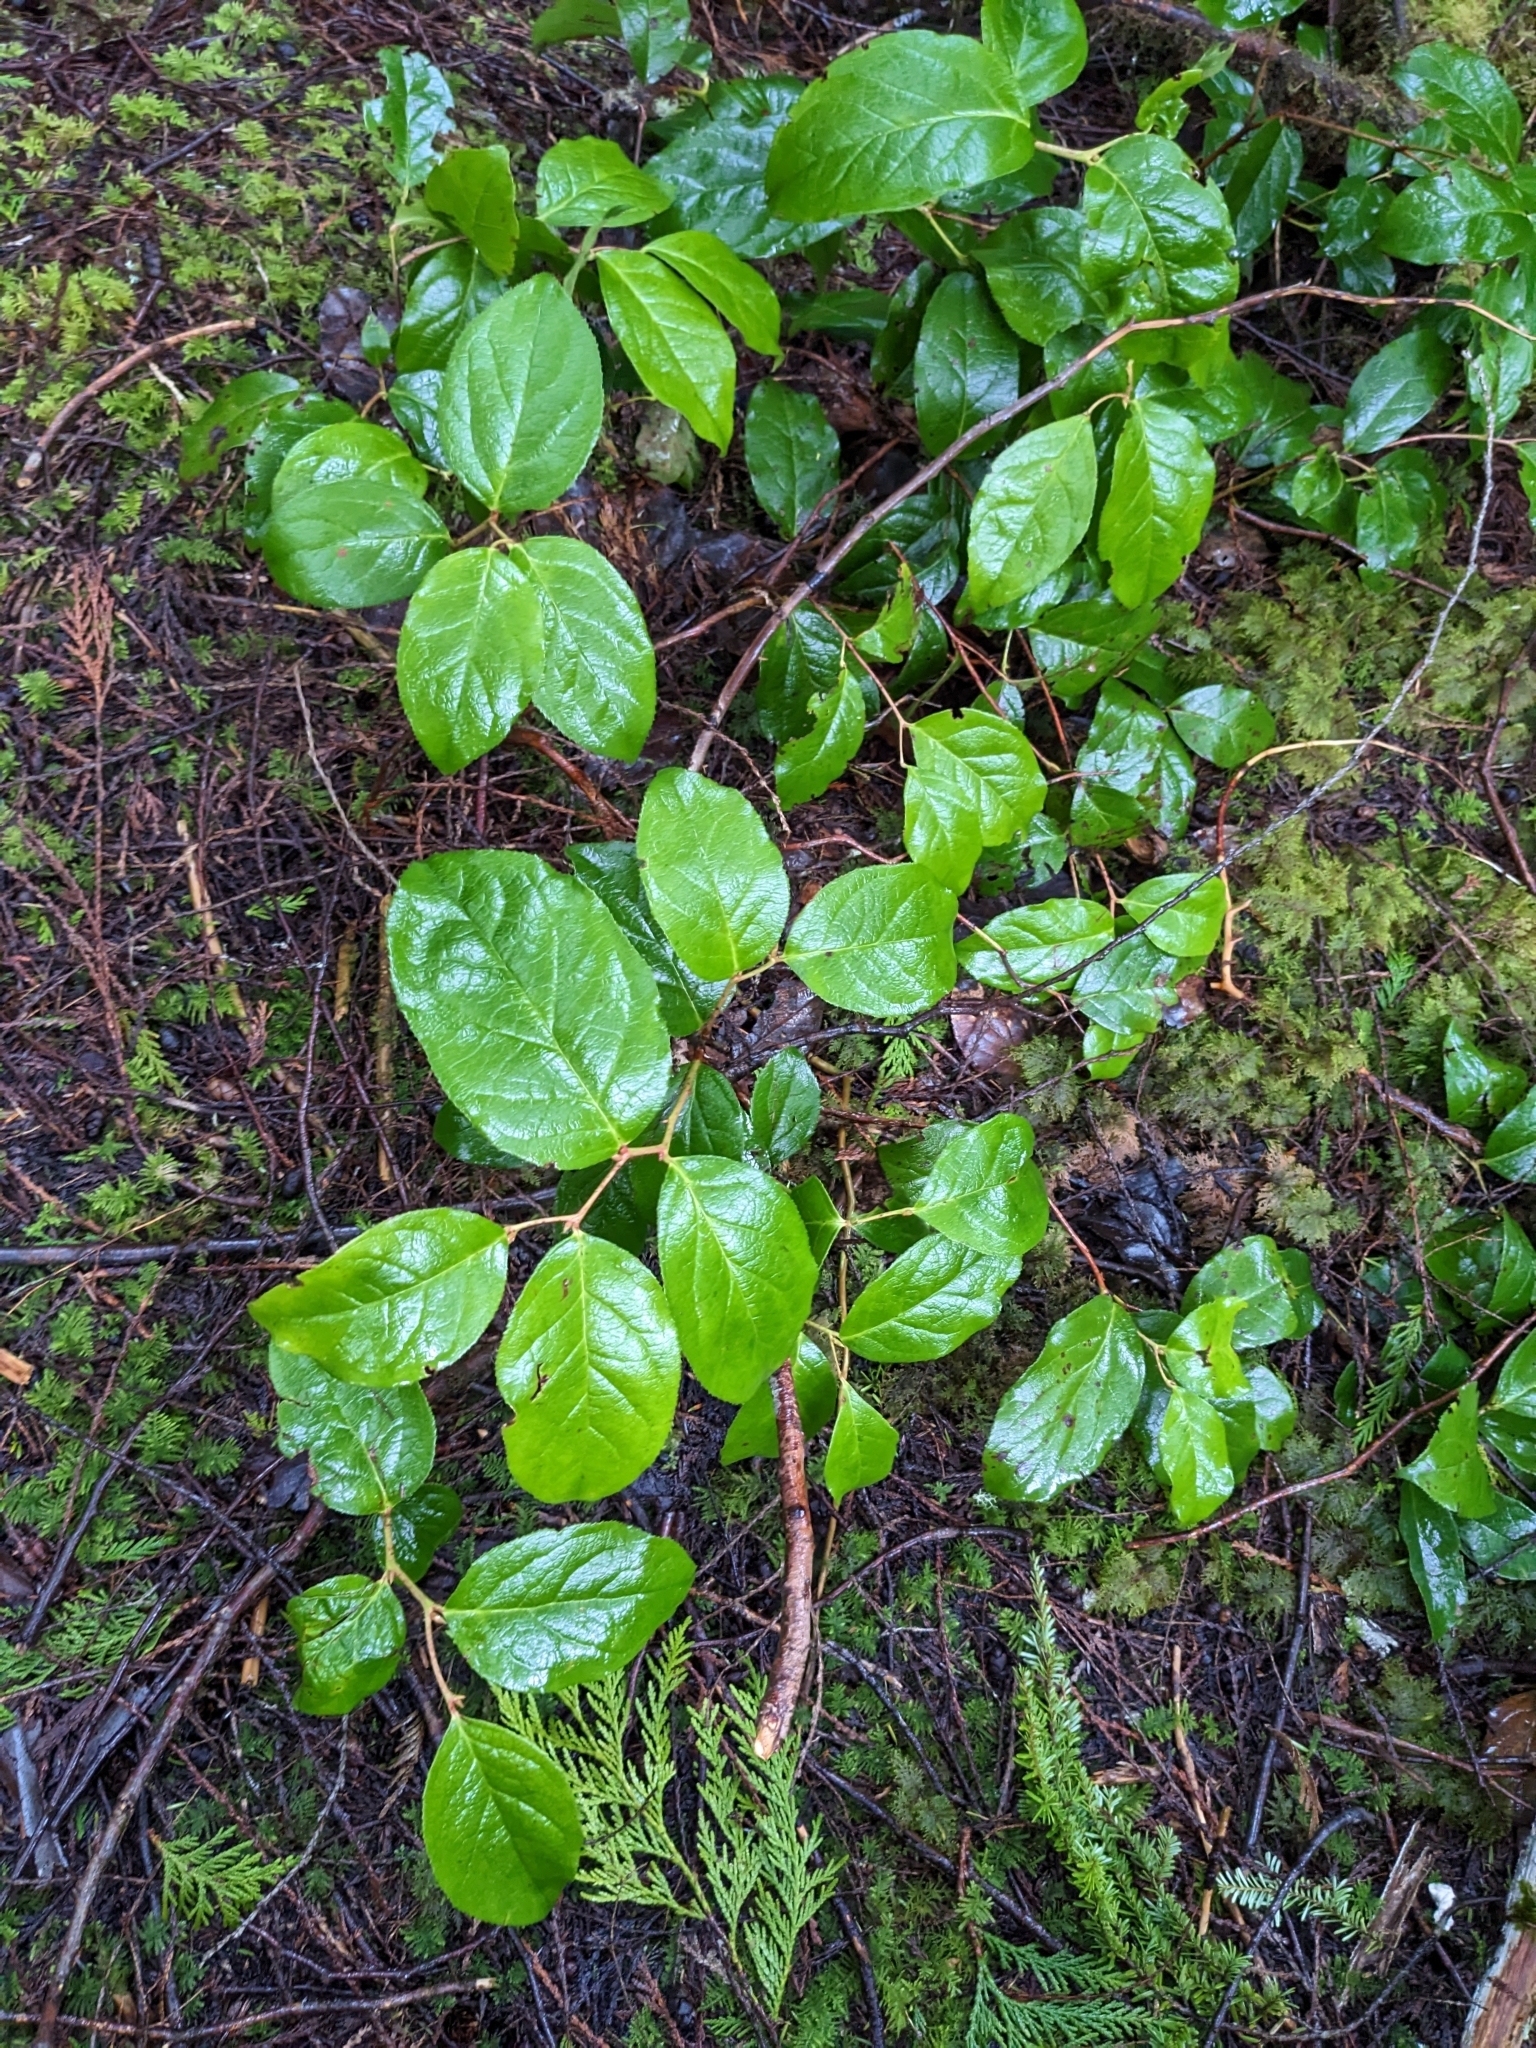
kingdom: Plantae
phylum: Tracheophyta
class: Magnoliopsida
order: Ericales
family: Ericaceae
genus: Gaultheria
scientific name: Gaultheria shallon
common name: Shallon
